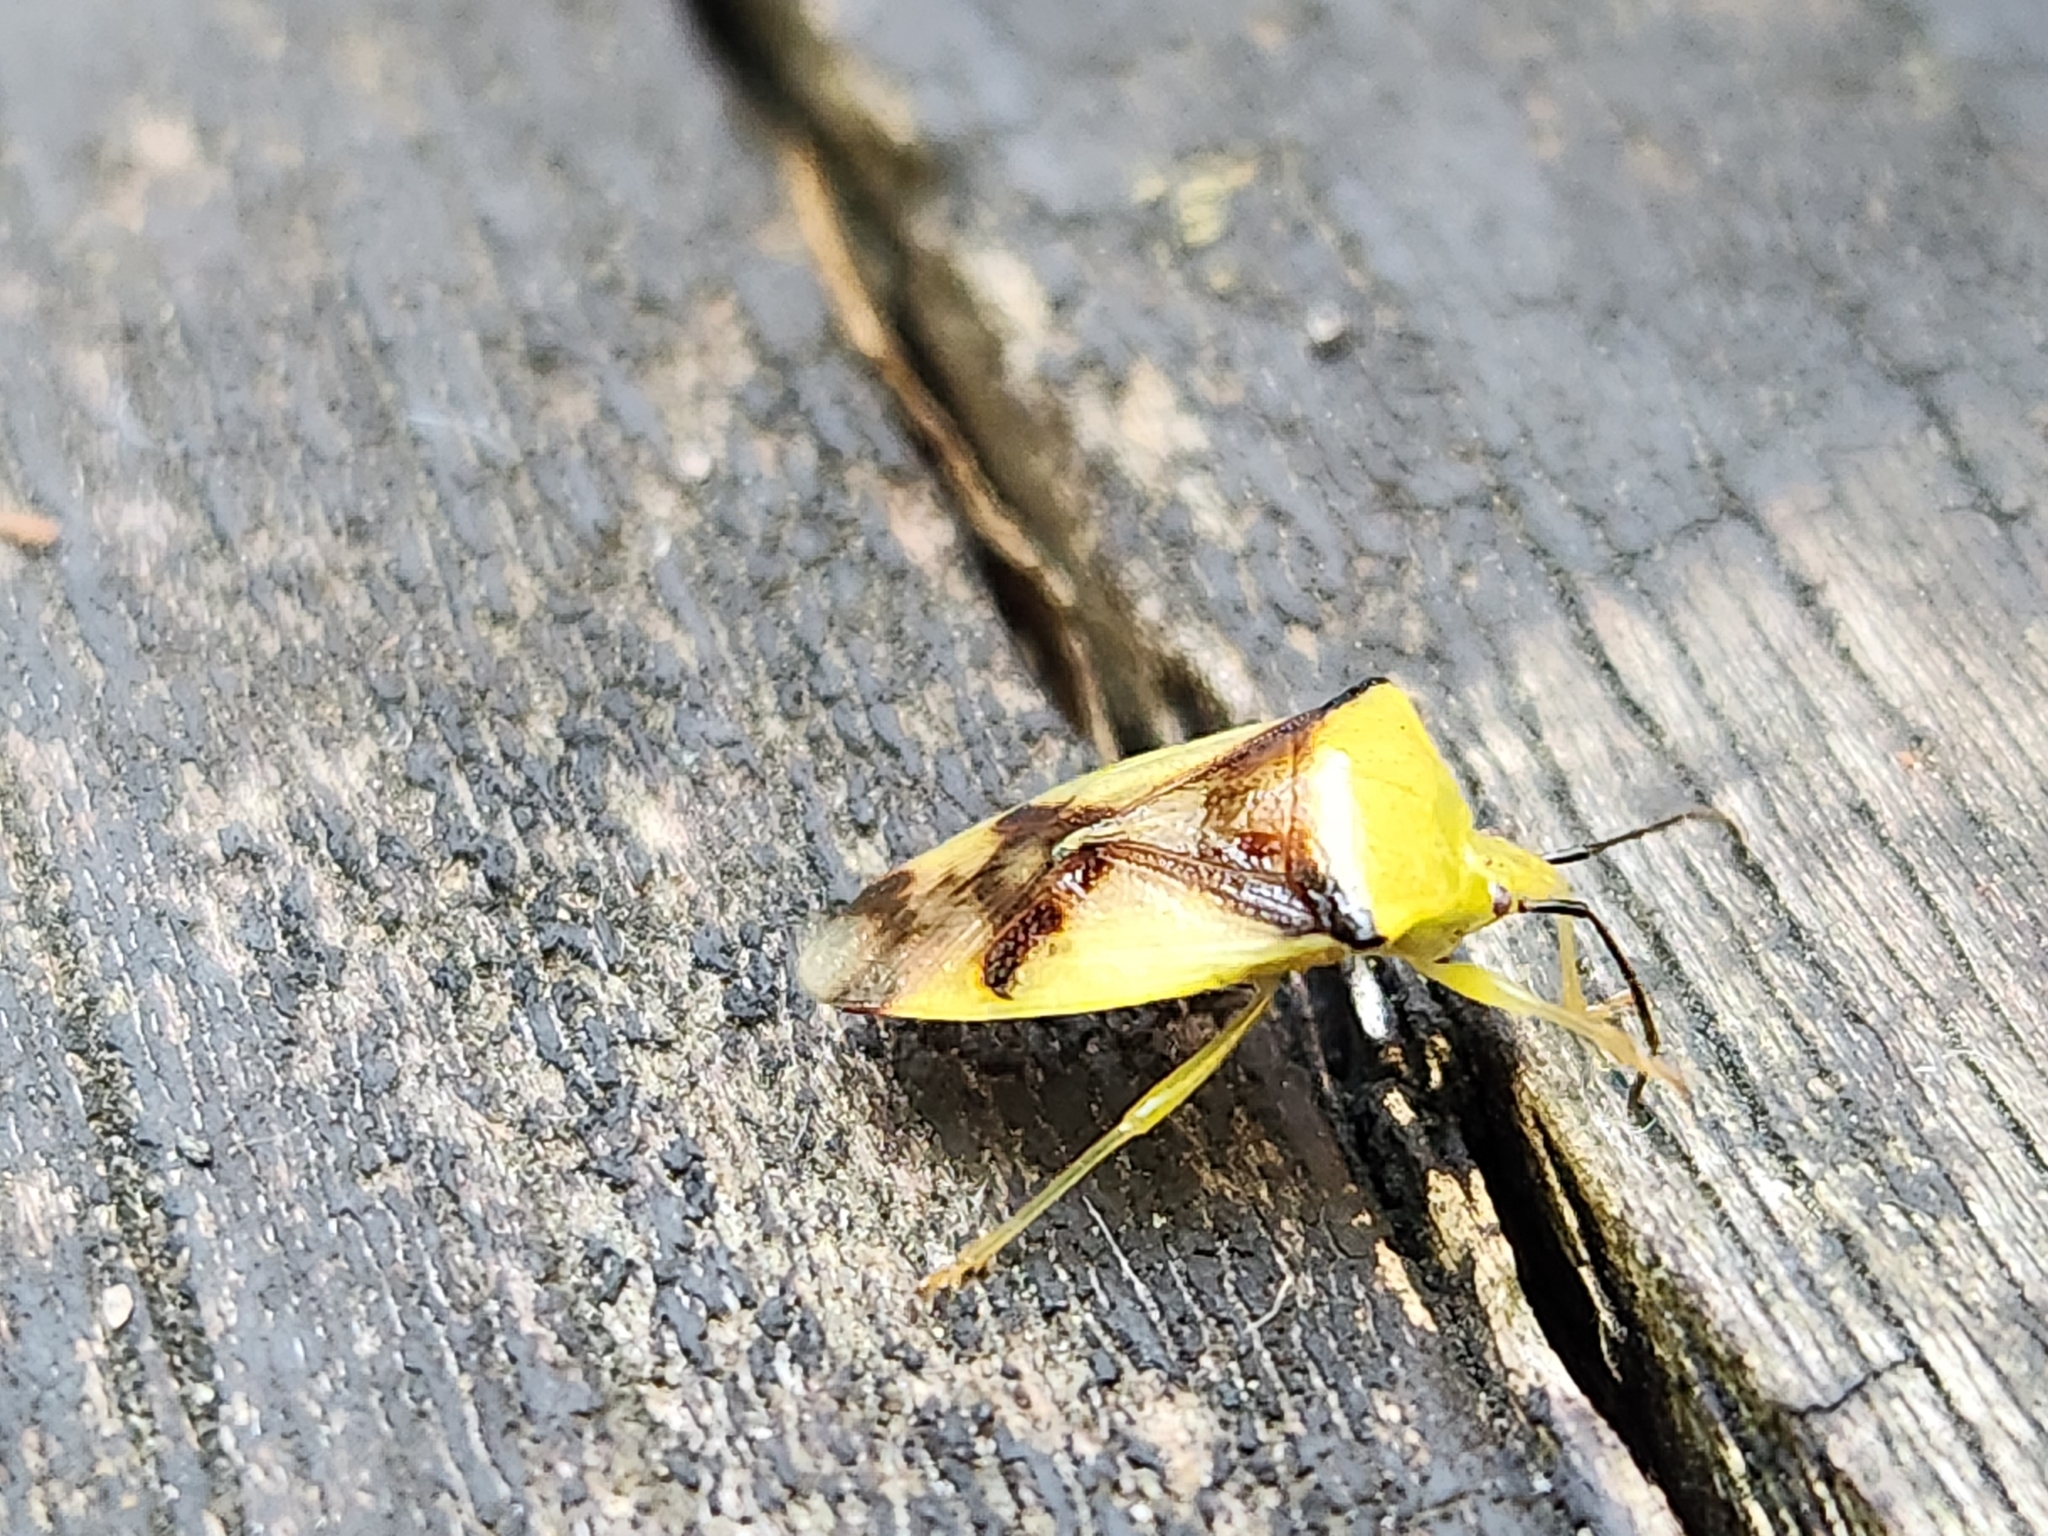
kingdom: Animalia
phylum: Arthropoda
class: Insecta
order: Hemiptera
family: Acanthosomatidae
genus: Elasmostethus
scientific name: Elasmostethus atricornis
